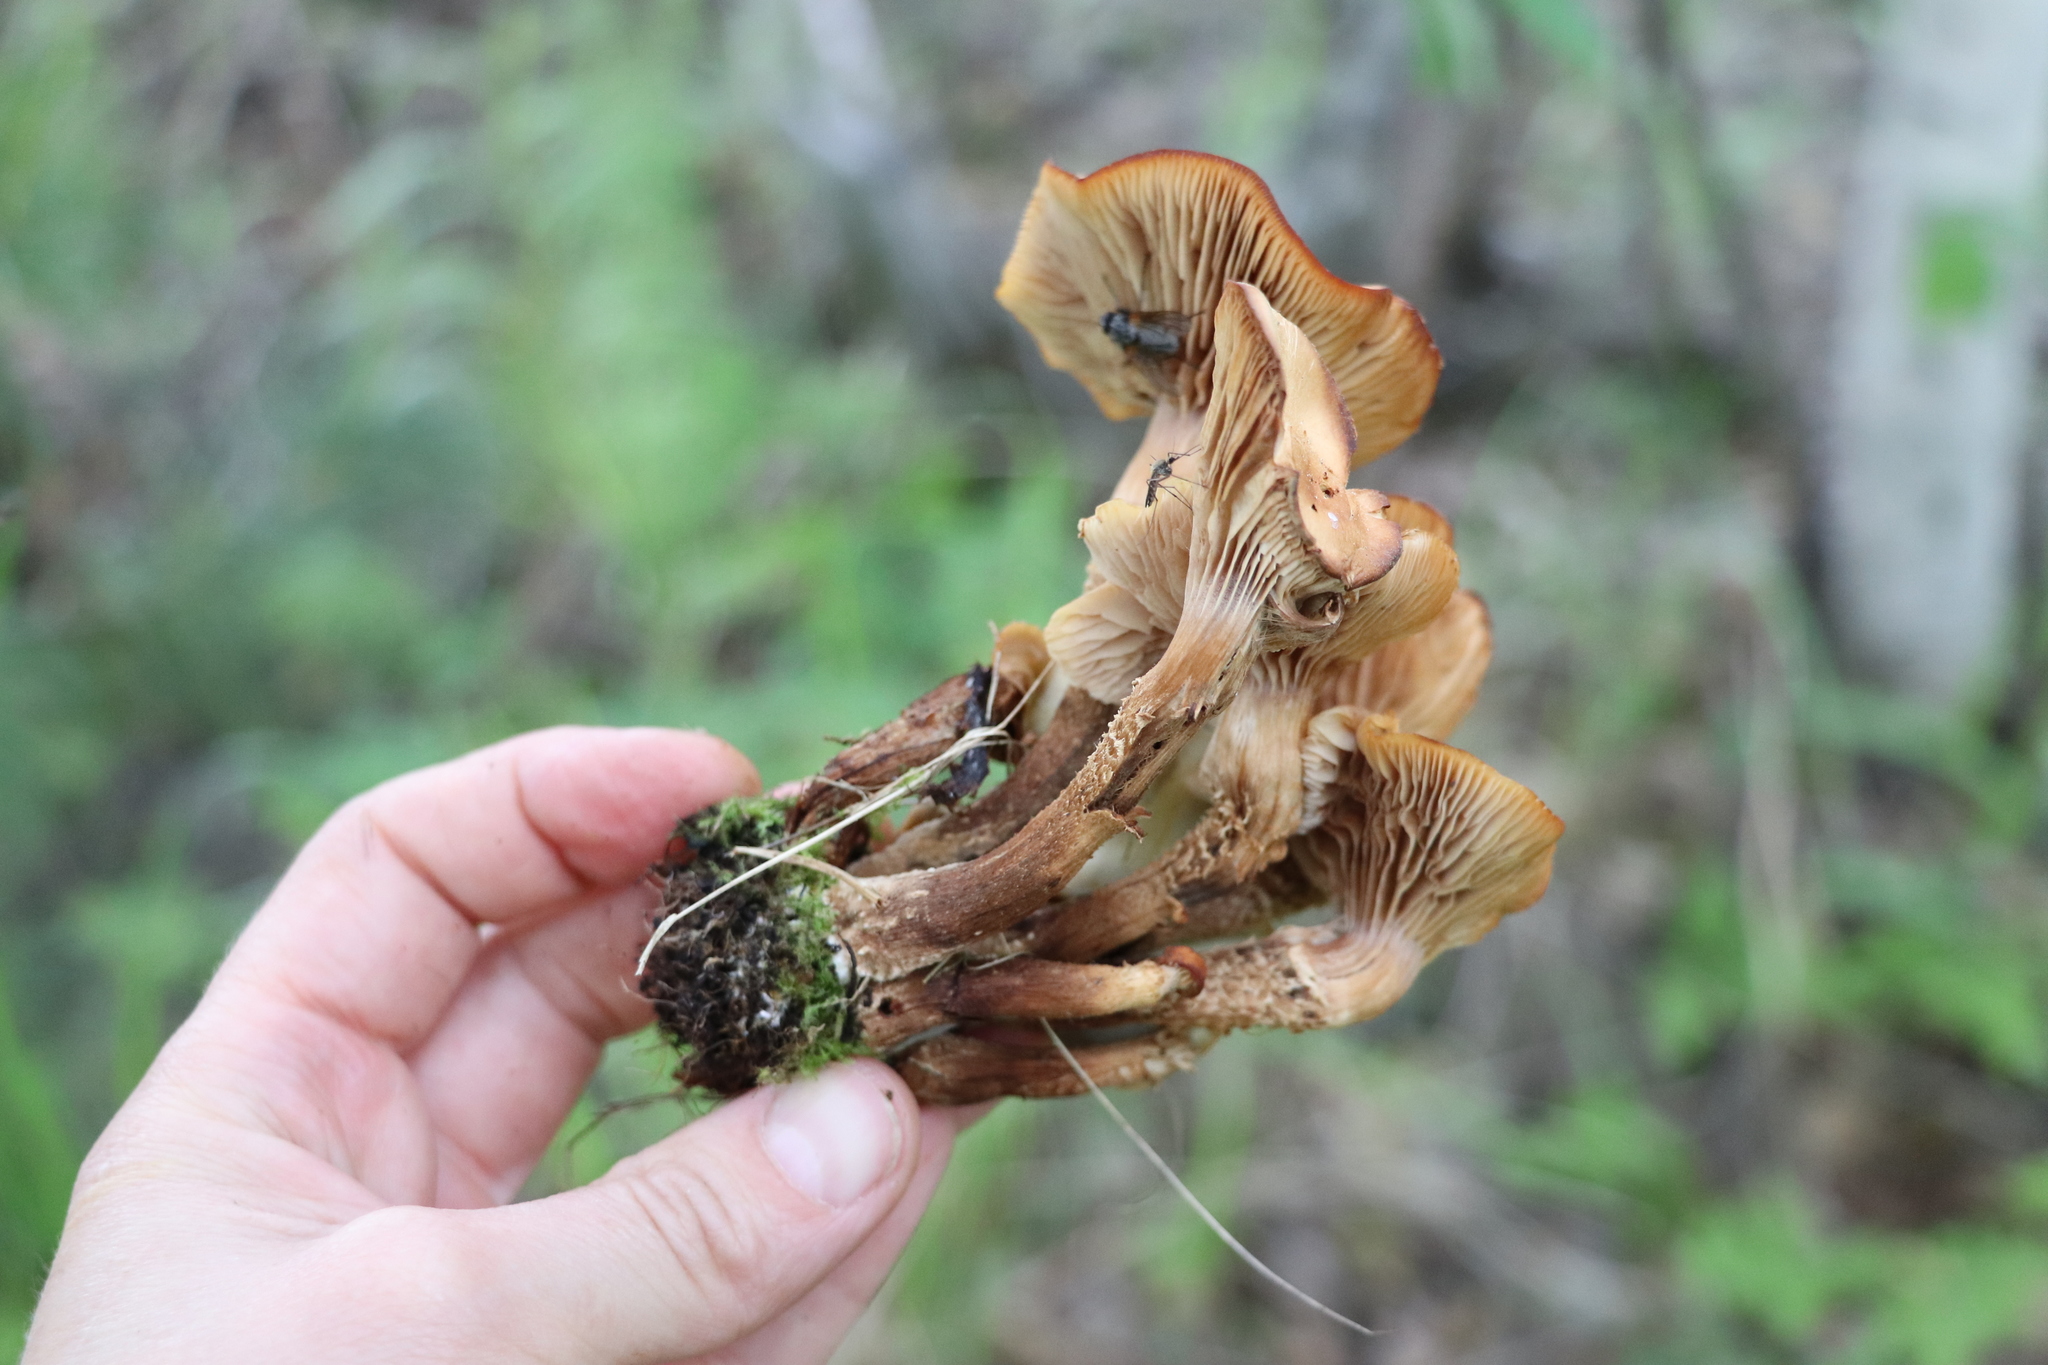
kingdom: Fungi
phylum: Basidiomycota
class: Agaricomycetes
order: Agaricales
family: Strophariaceae
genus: Kuehneromyces
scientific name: Kuehneromyces mutabilis
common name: Sheathed woodtuft
